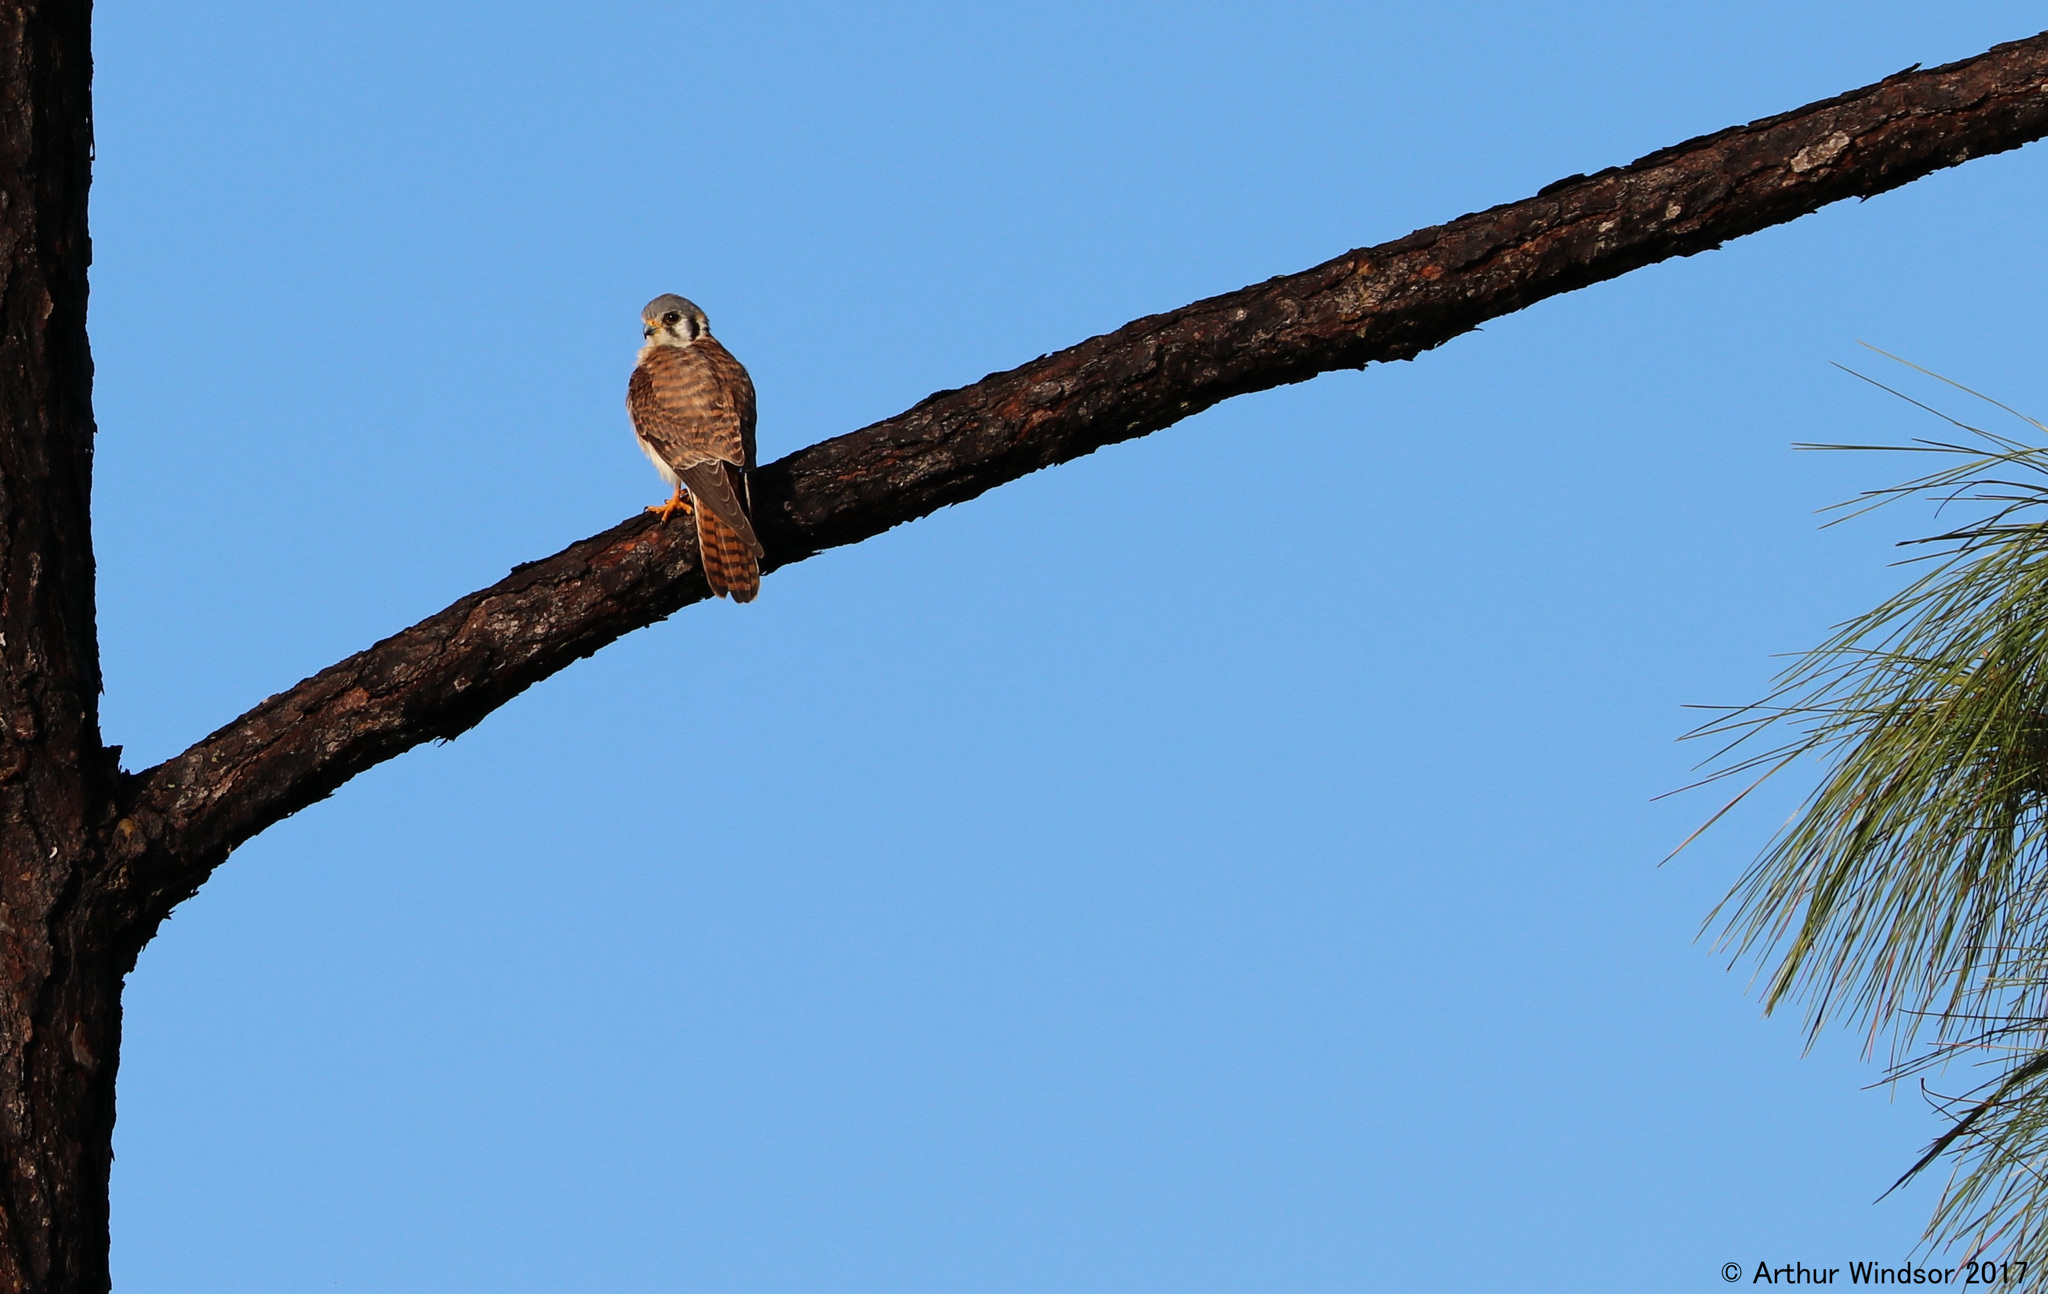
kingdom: Animalia
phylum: Chordata
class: Aves
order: Falconiformes
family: Falconidae
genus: Falco
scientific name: Falco sparverius
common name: American kestrel
